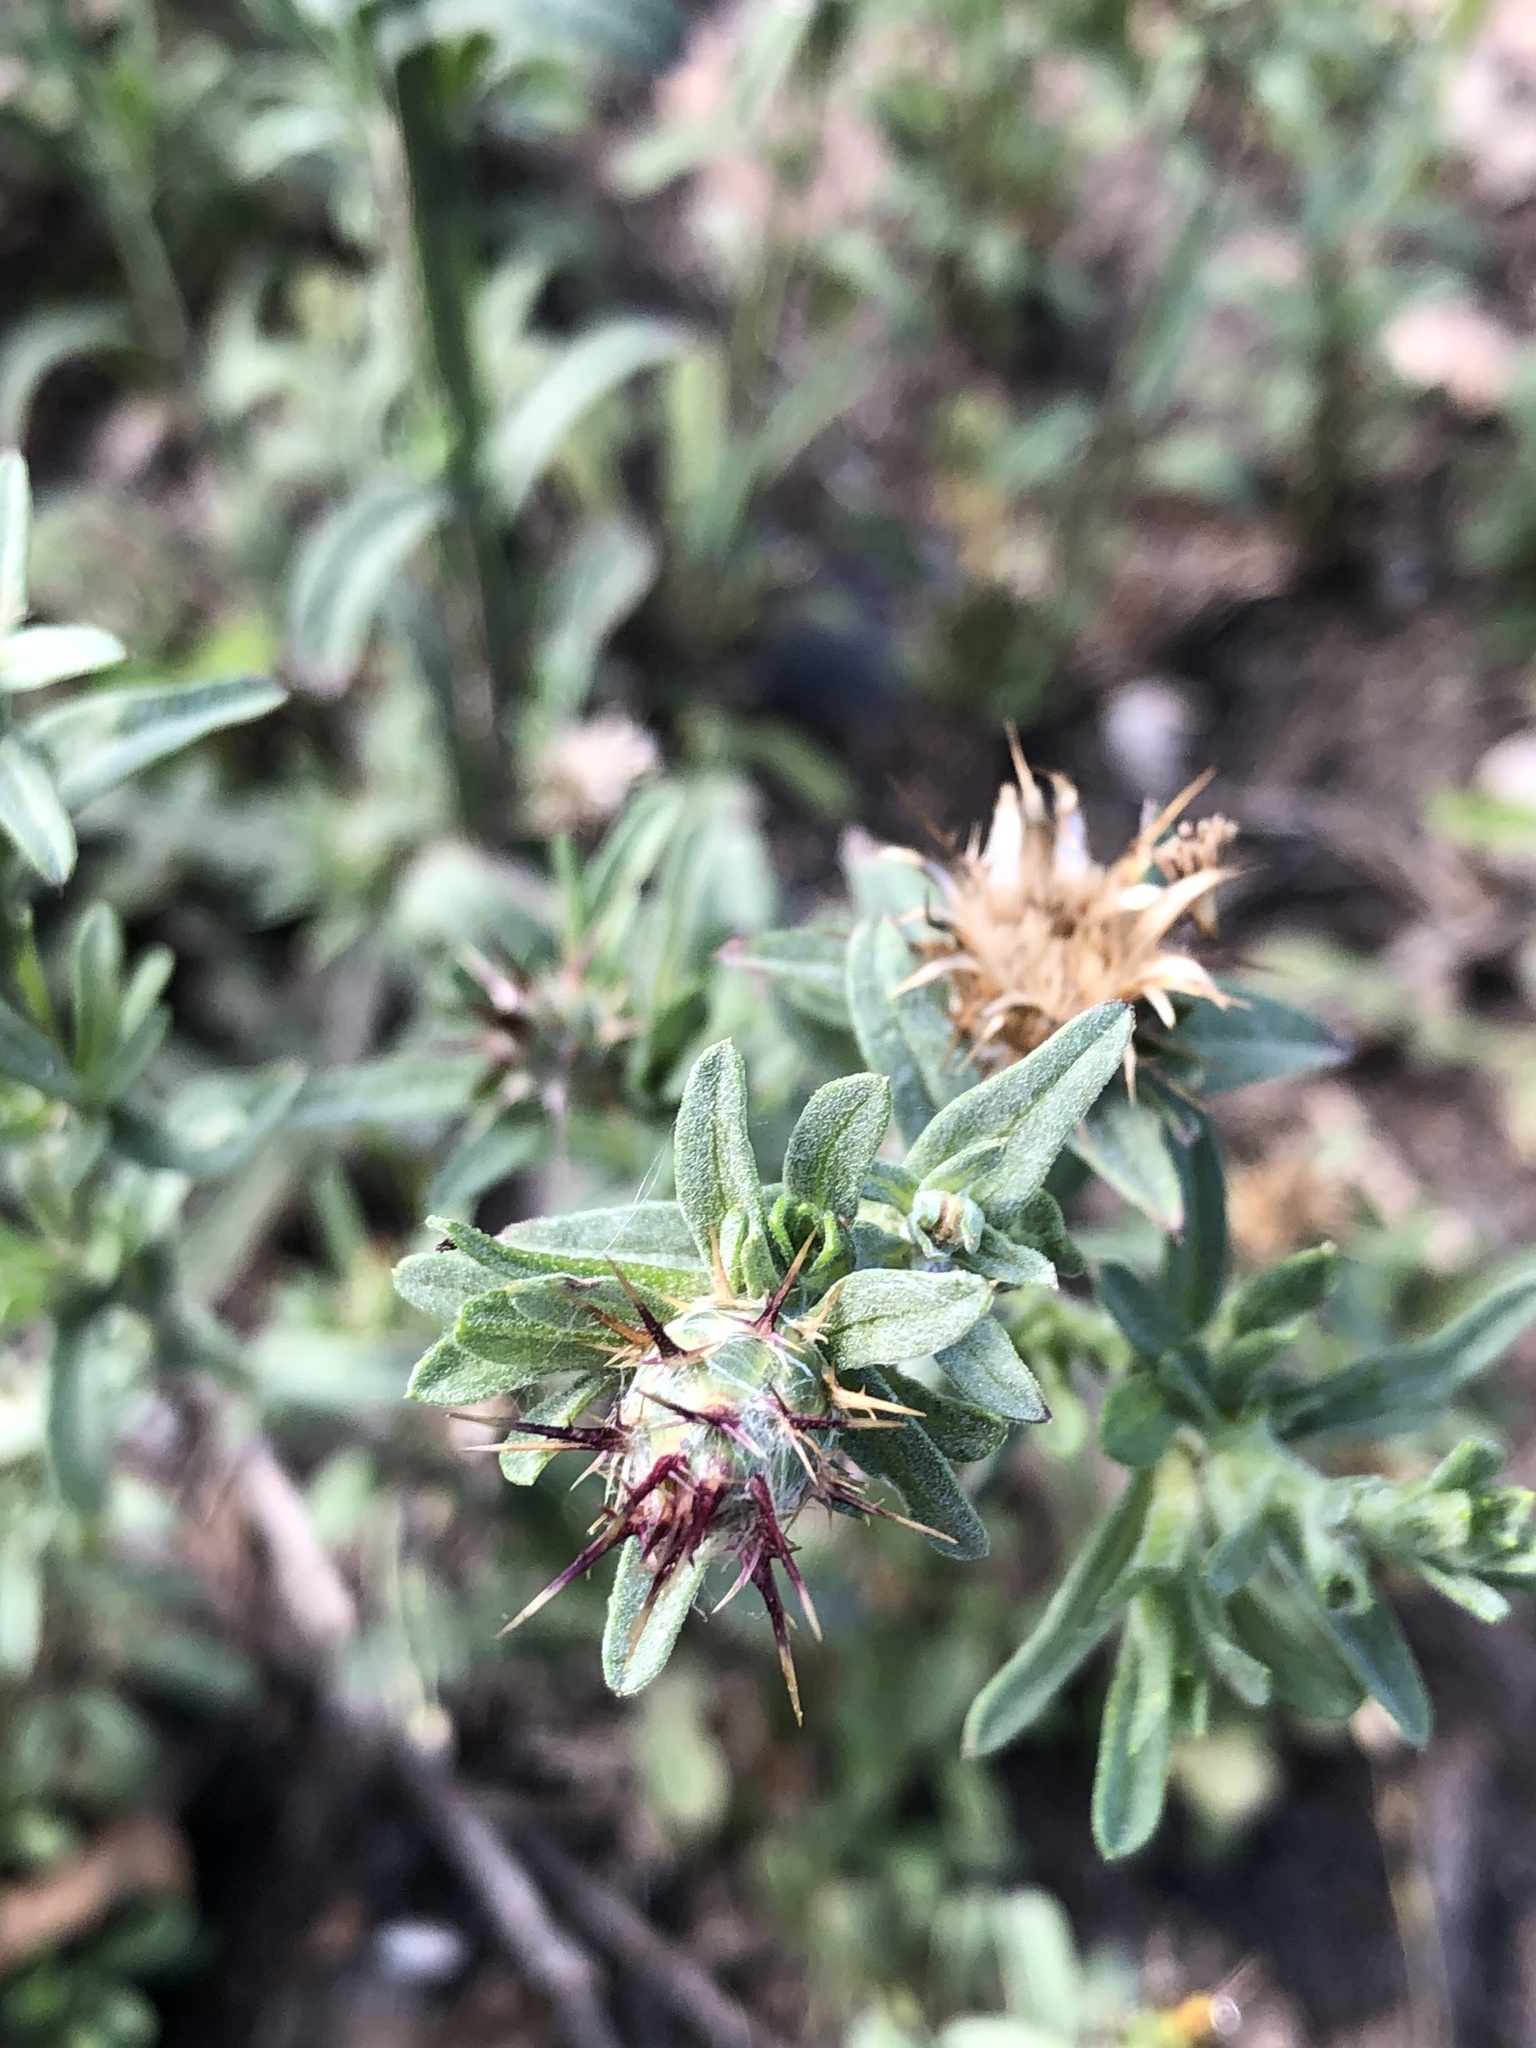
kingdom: Plantae
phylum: Tracheophyta
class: Magnoliopsida
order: Asterales
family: Asteraceae
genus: Centaurea
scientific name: Centaurea melitensis
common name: Maltese star-thistle
